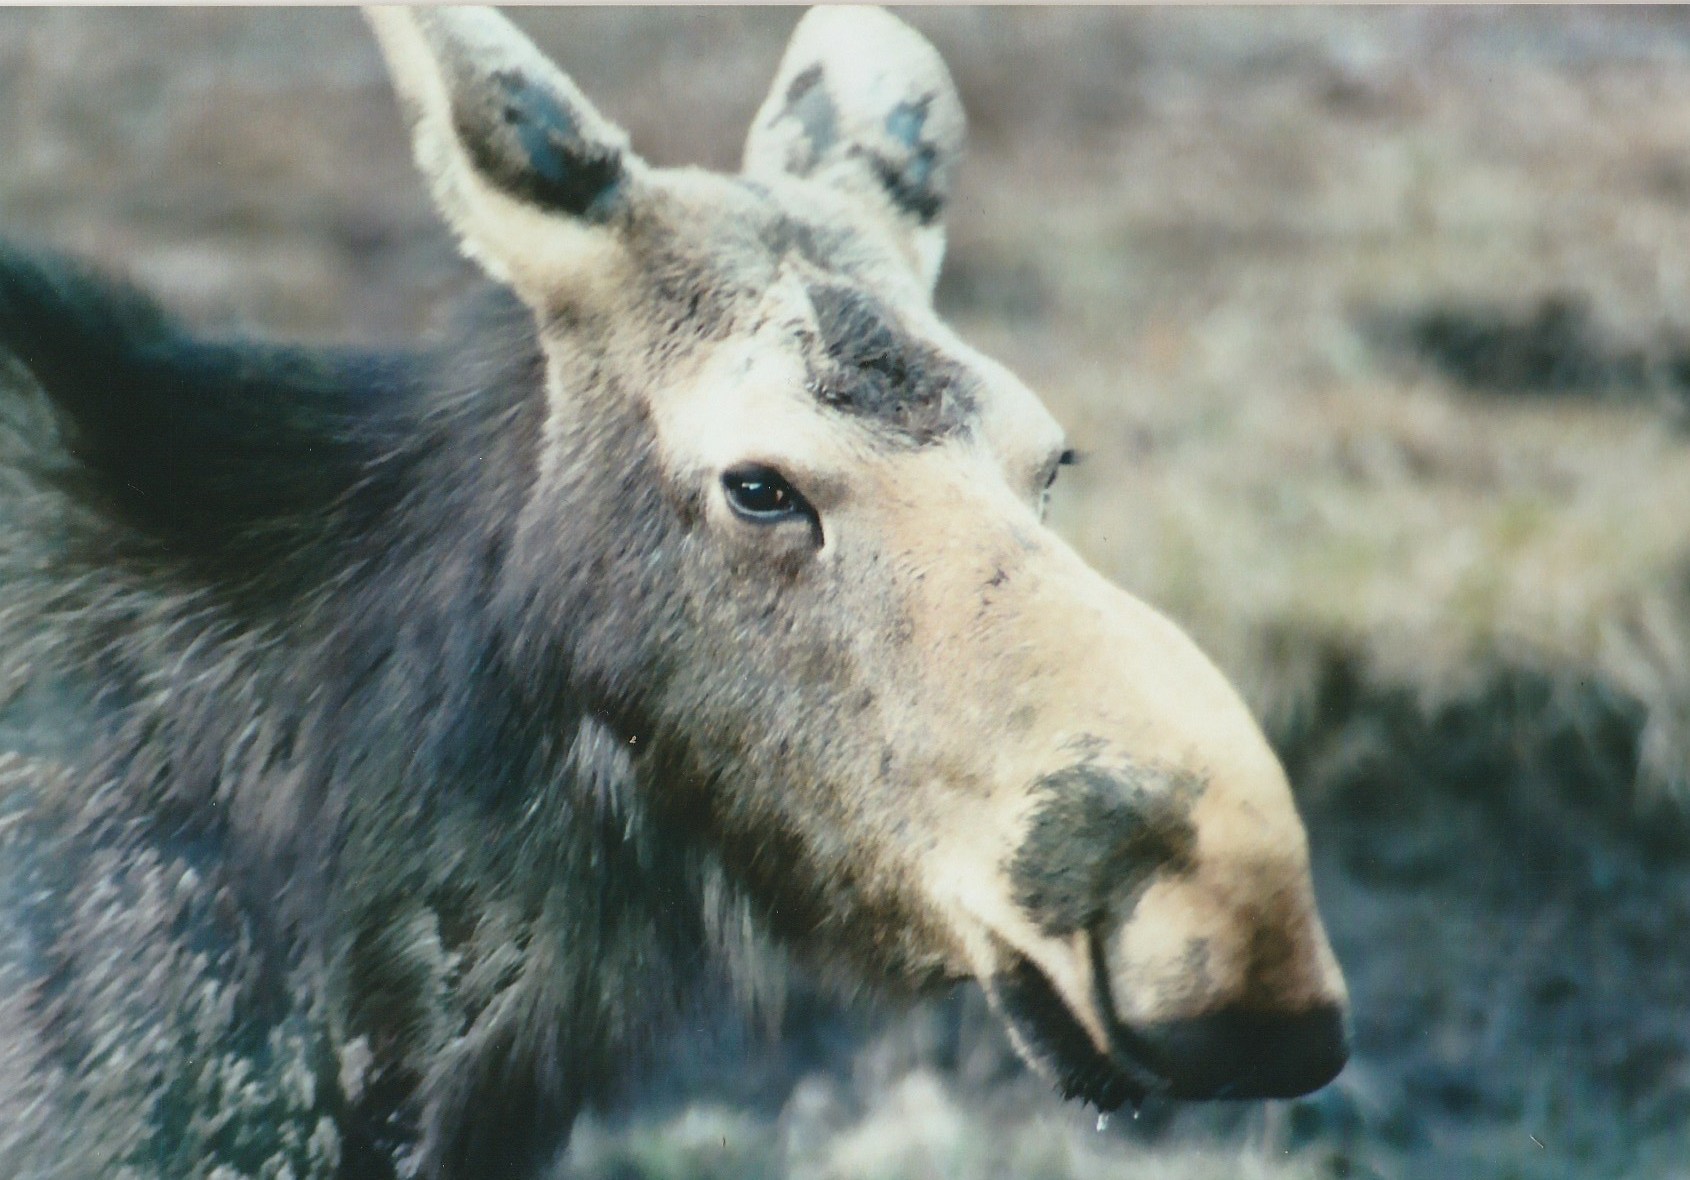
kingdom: Animalia
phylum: Chordata
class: Mammalia
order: Artiodactyla
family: Cervidae
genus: Alces
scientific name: Alces alces
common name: Moose
